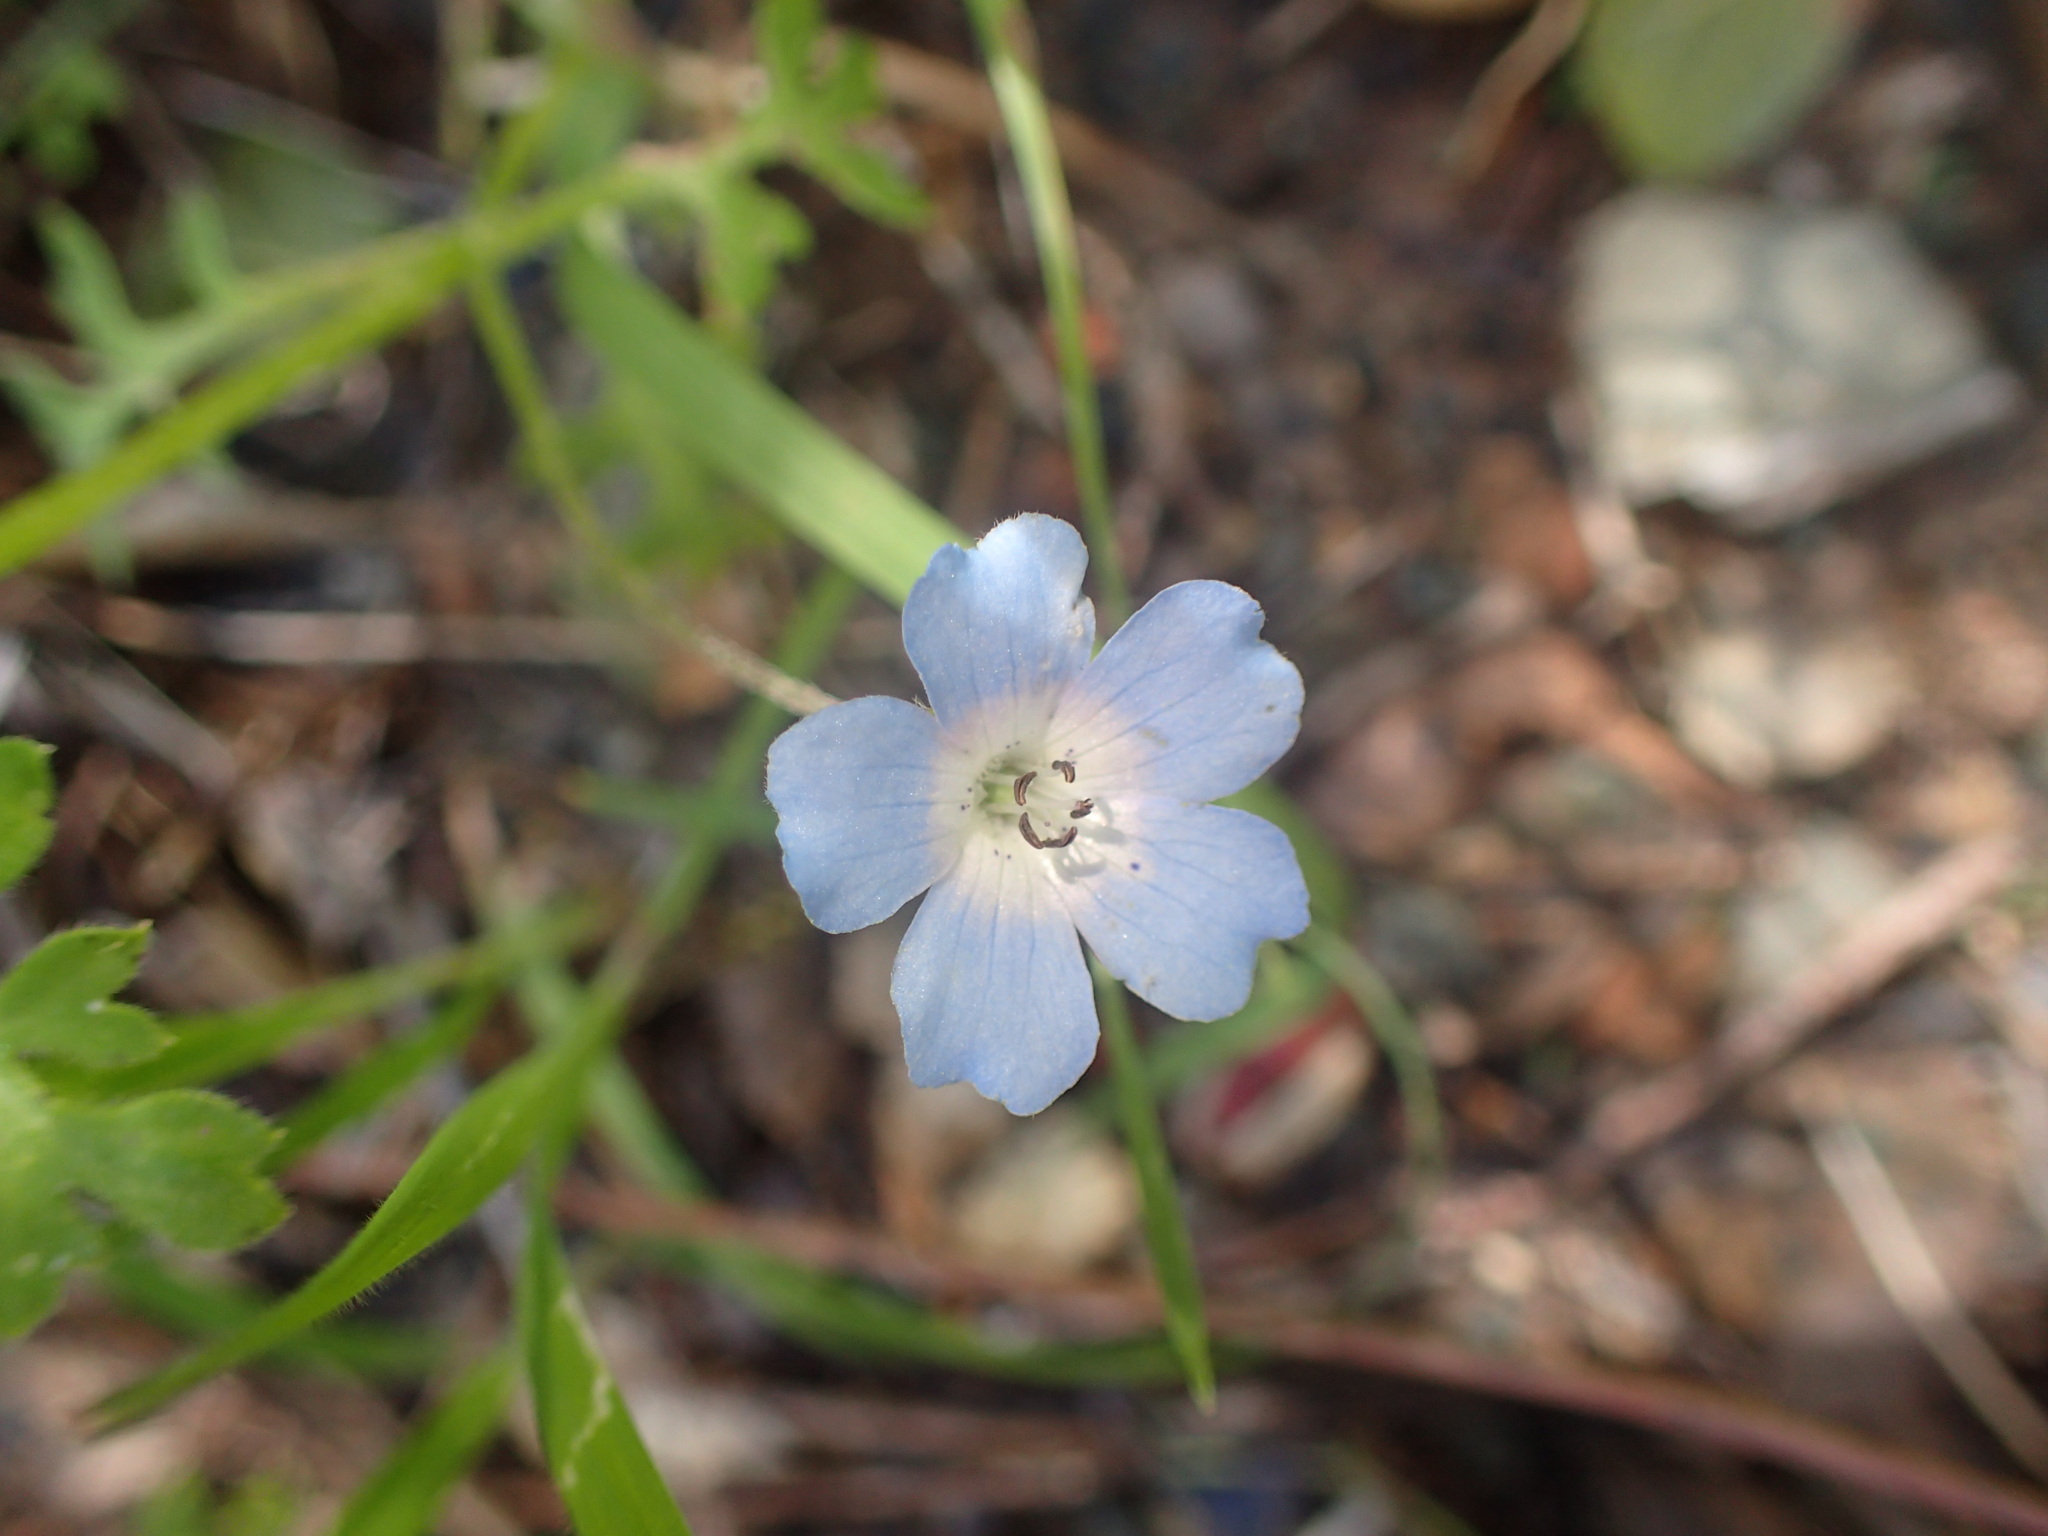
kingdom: Plantae
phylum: Tracheophyta
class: Magnoliopsida
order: Boraginales
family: Hydrophyllaceae
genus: Nemophila
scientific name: Nemophila menziesii
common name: Baby's-blue-eyes
